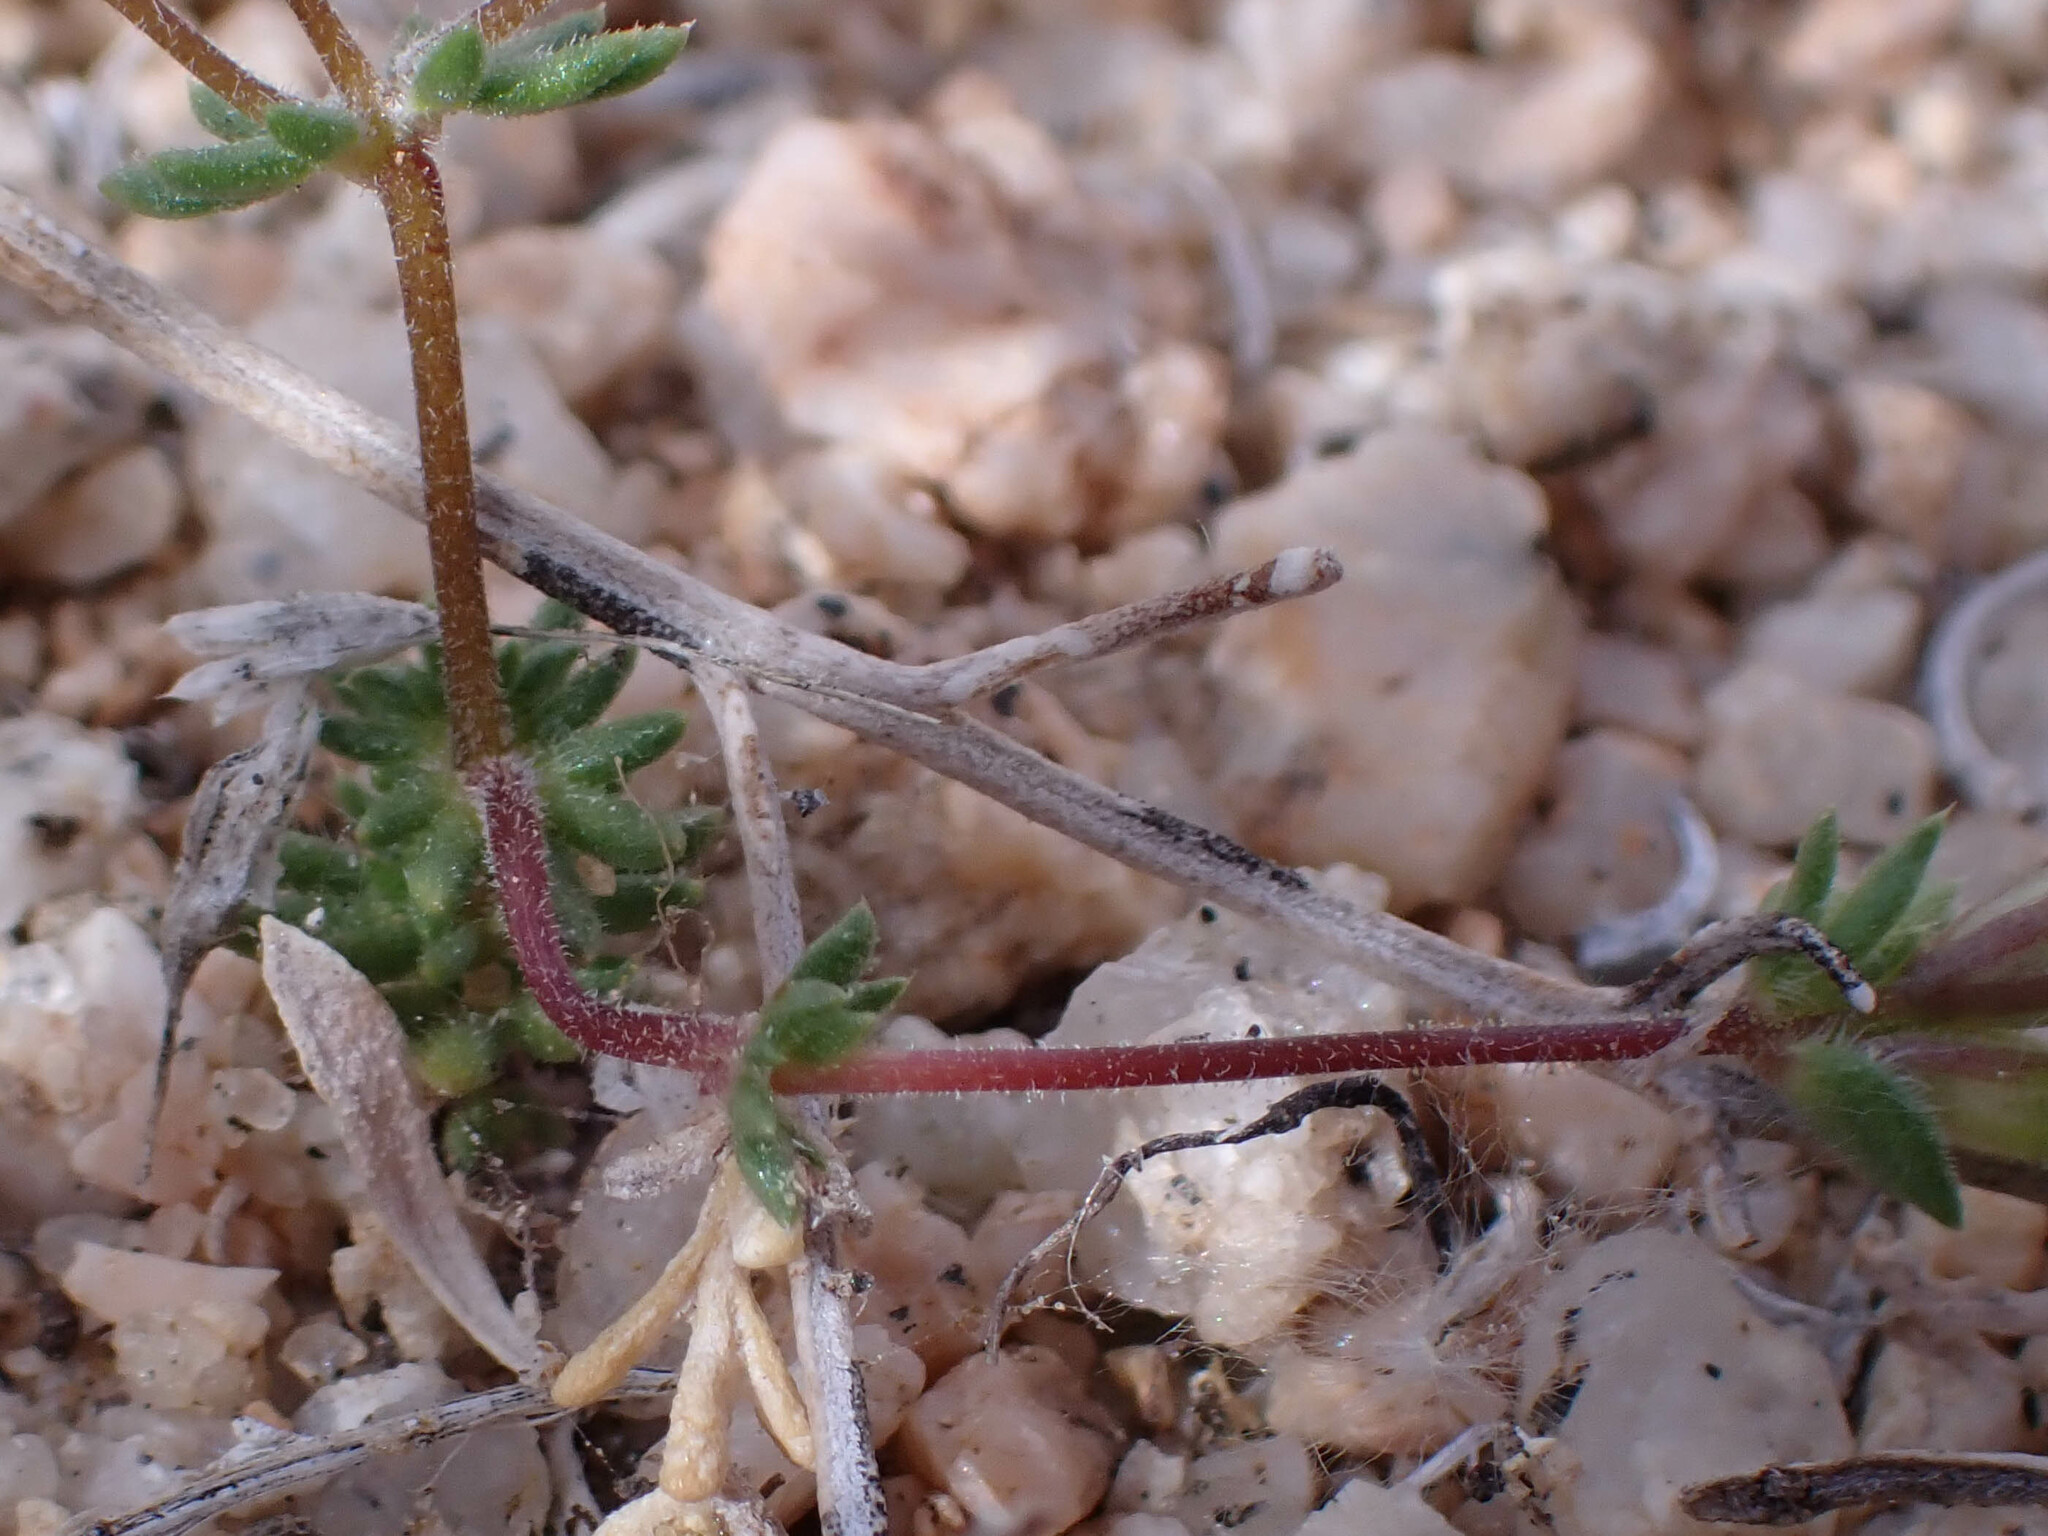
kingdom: Plantae
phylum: Tracheophyta
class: Magnoliopsida
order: Ericales
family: Polemoniaceae
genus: Leptosiphon
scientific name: Leptosiphon chrysanthus
